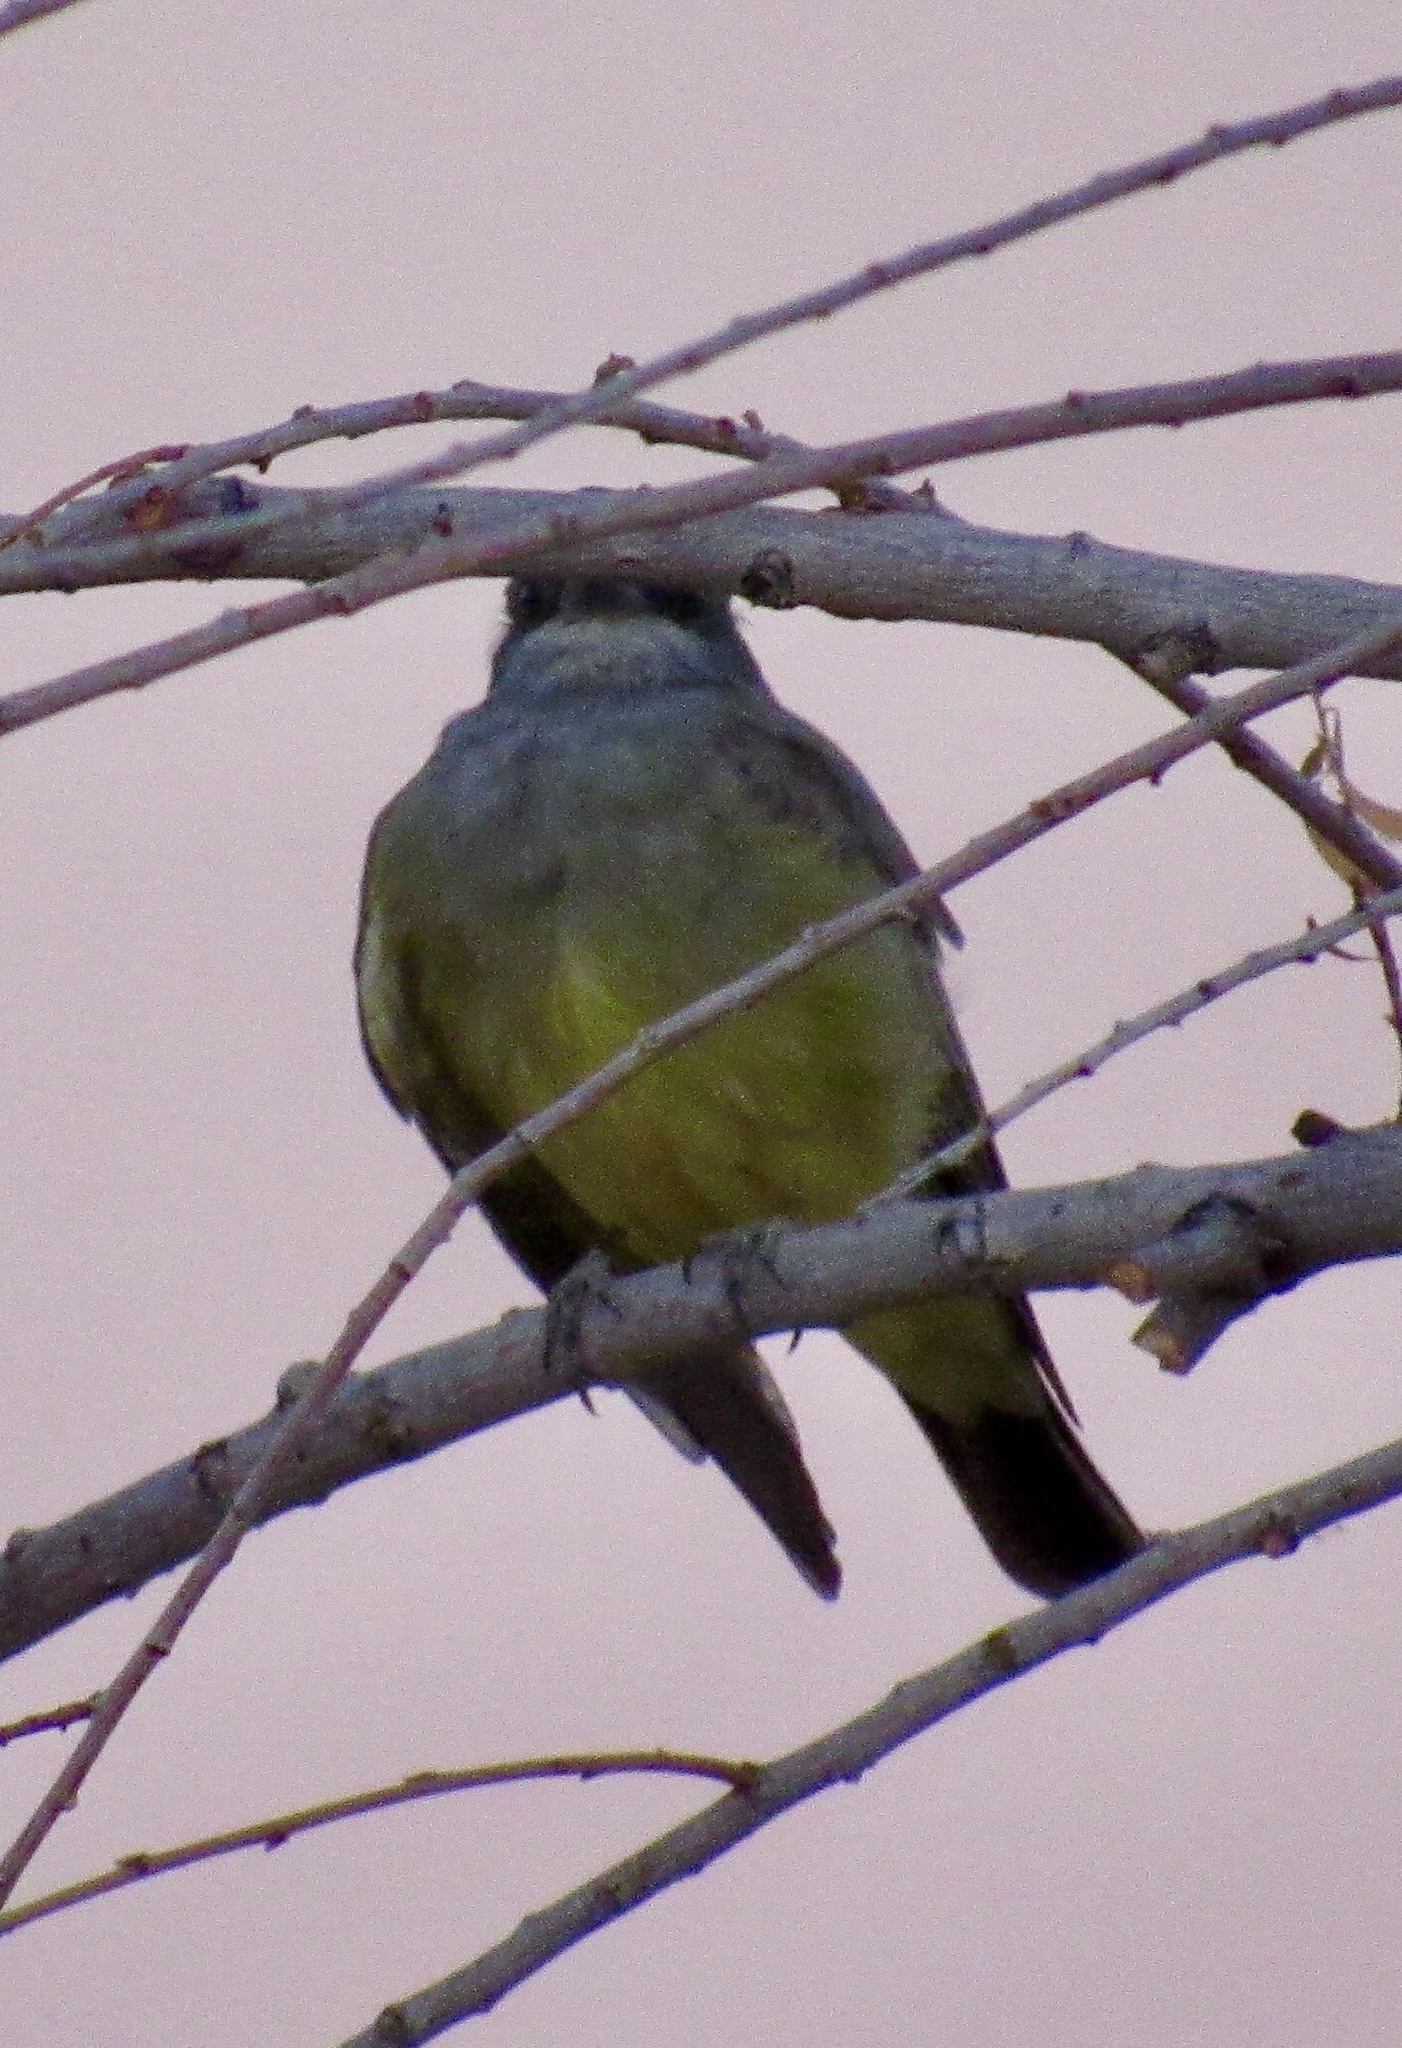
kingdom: Animalia
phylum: Chordata
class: Aves
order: Passeriformes
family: Tyrannidae
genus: Tyrannus
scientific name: Tyrannus vociferans
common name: Cassin's kingbird
